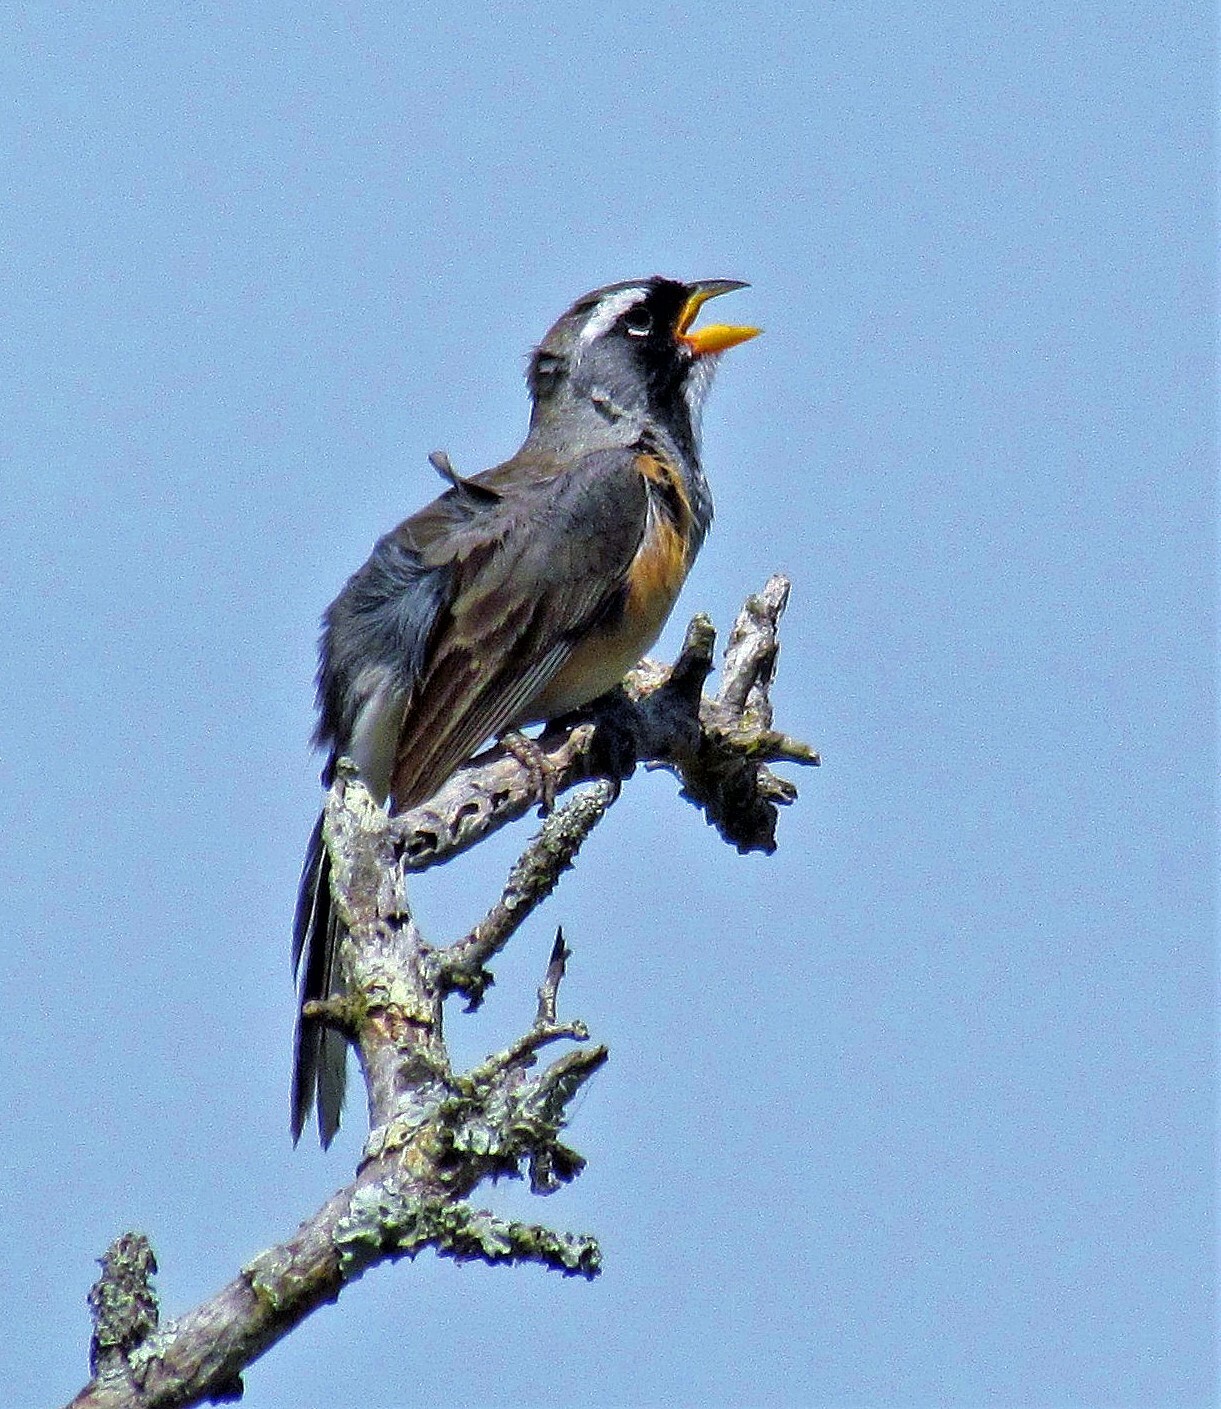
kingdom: Animalia
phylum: Chordata
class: Aves
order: Passeriformes
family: Thraupidae
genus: Saltatricula
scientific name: Saltatricula multicolor
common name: Many-colored chaco finch
